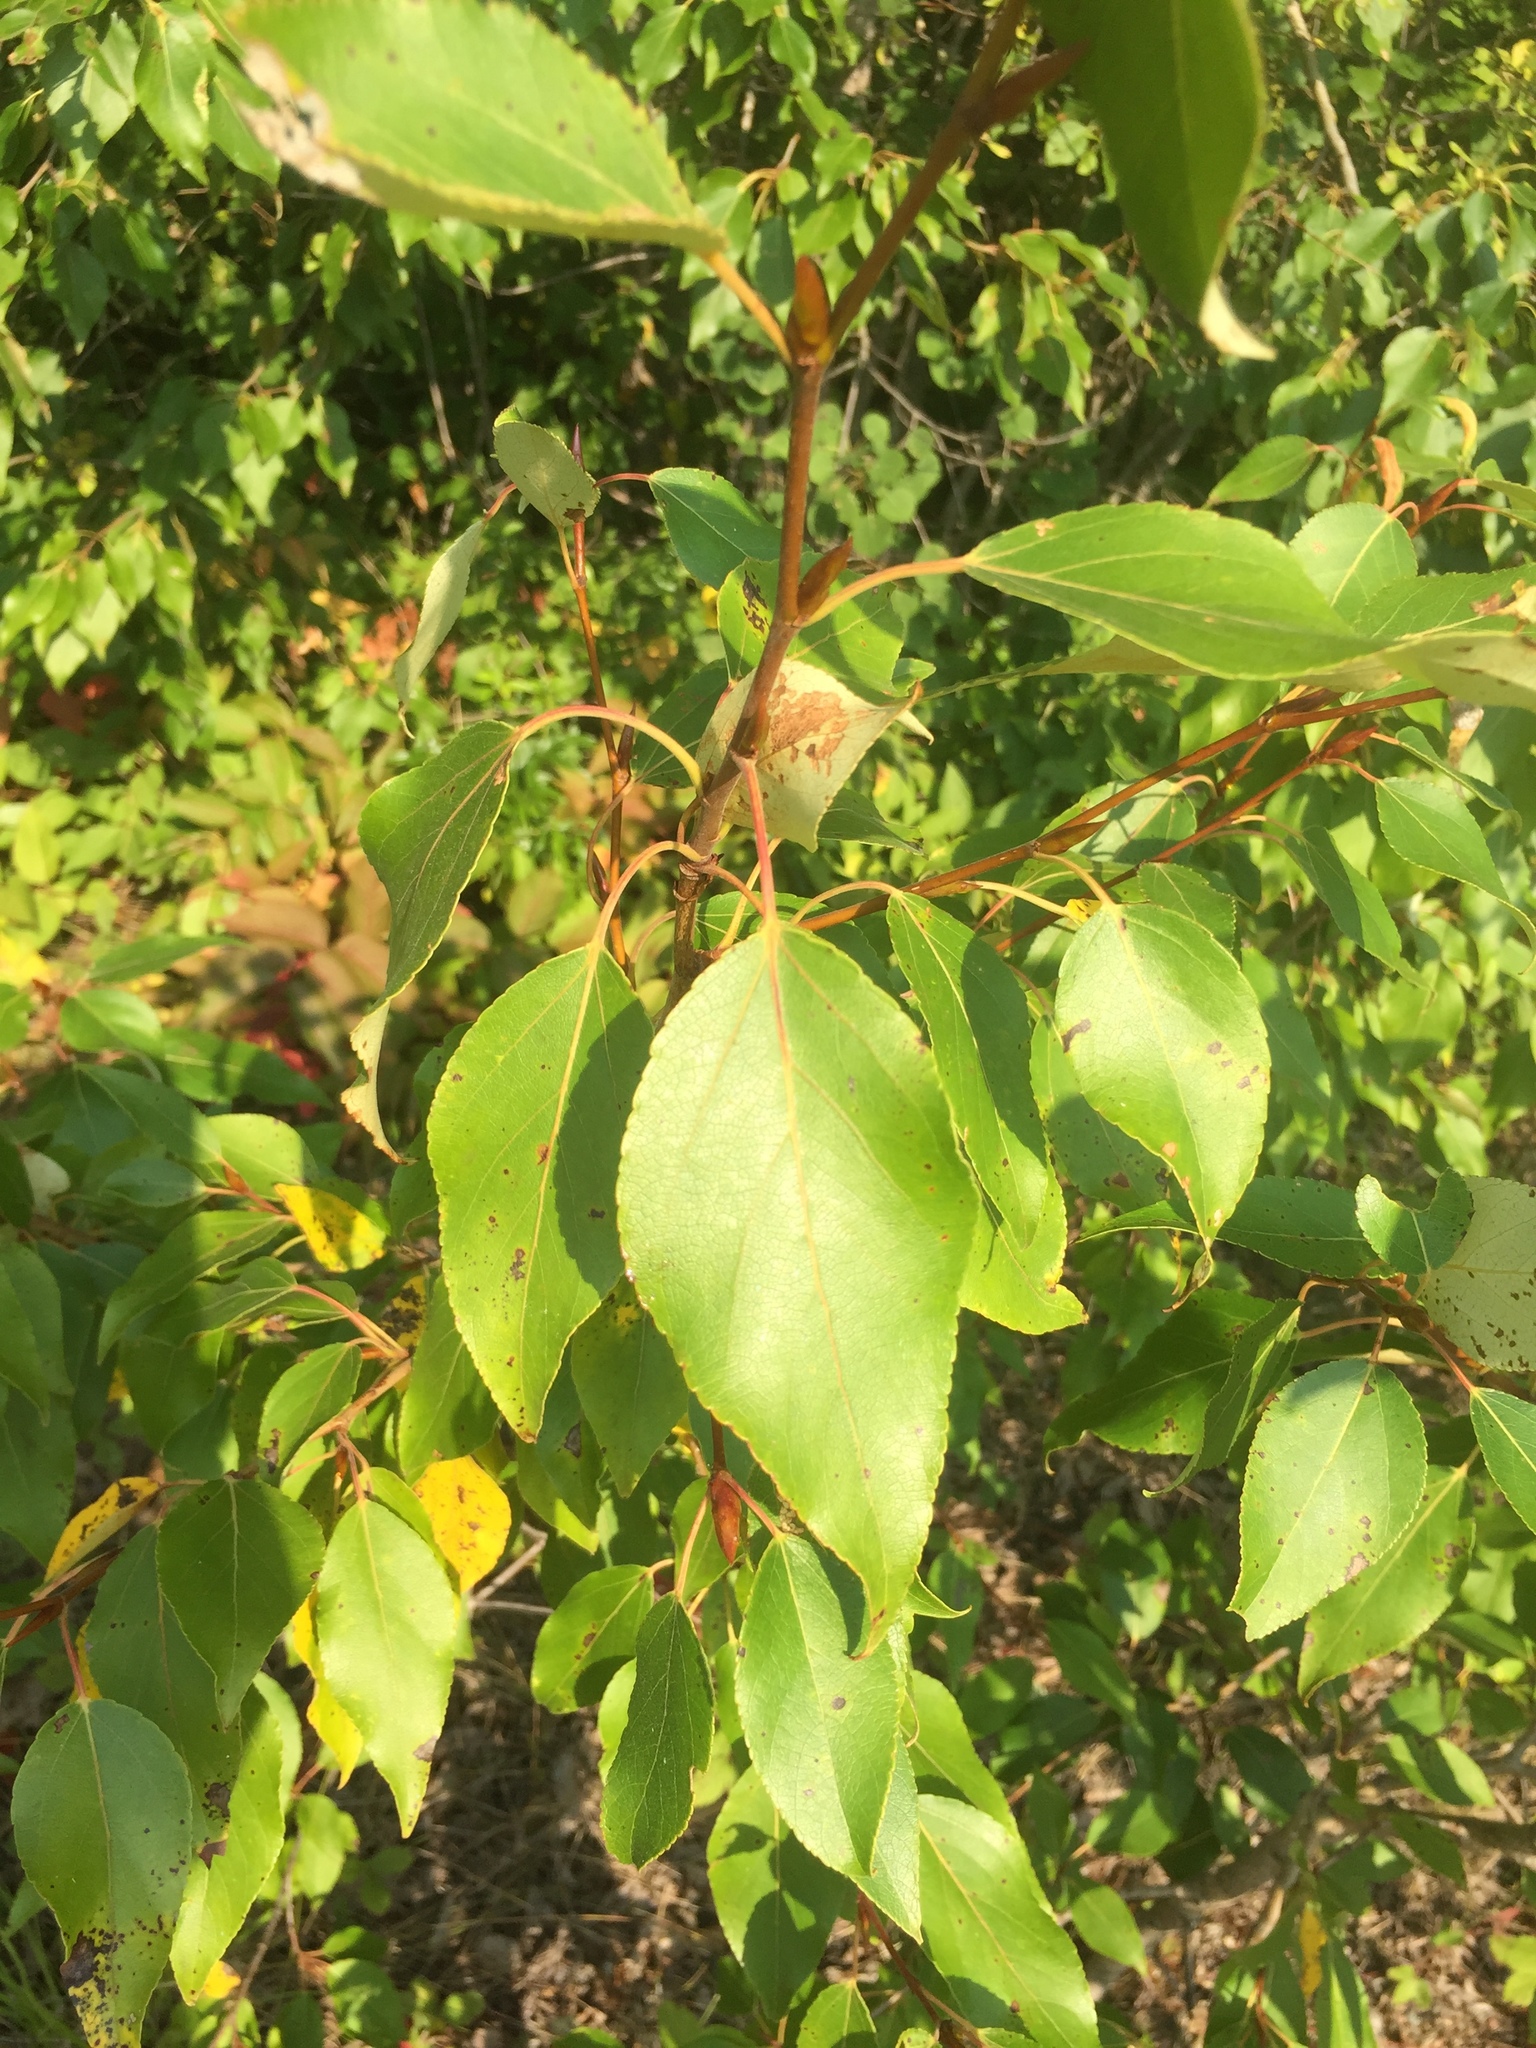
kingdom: Plantae
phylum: Tracheophyta
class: Magnoliopsida
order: Malpighiales
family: Salicaceae
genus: Populus
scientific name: Populus balsamifera
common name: Balsam poplar
